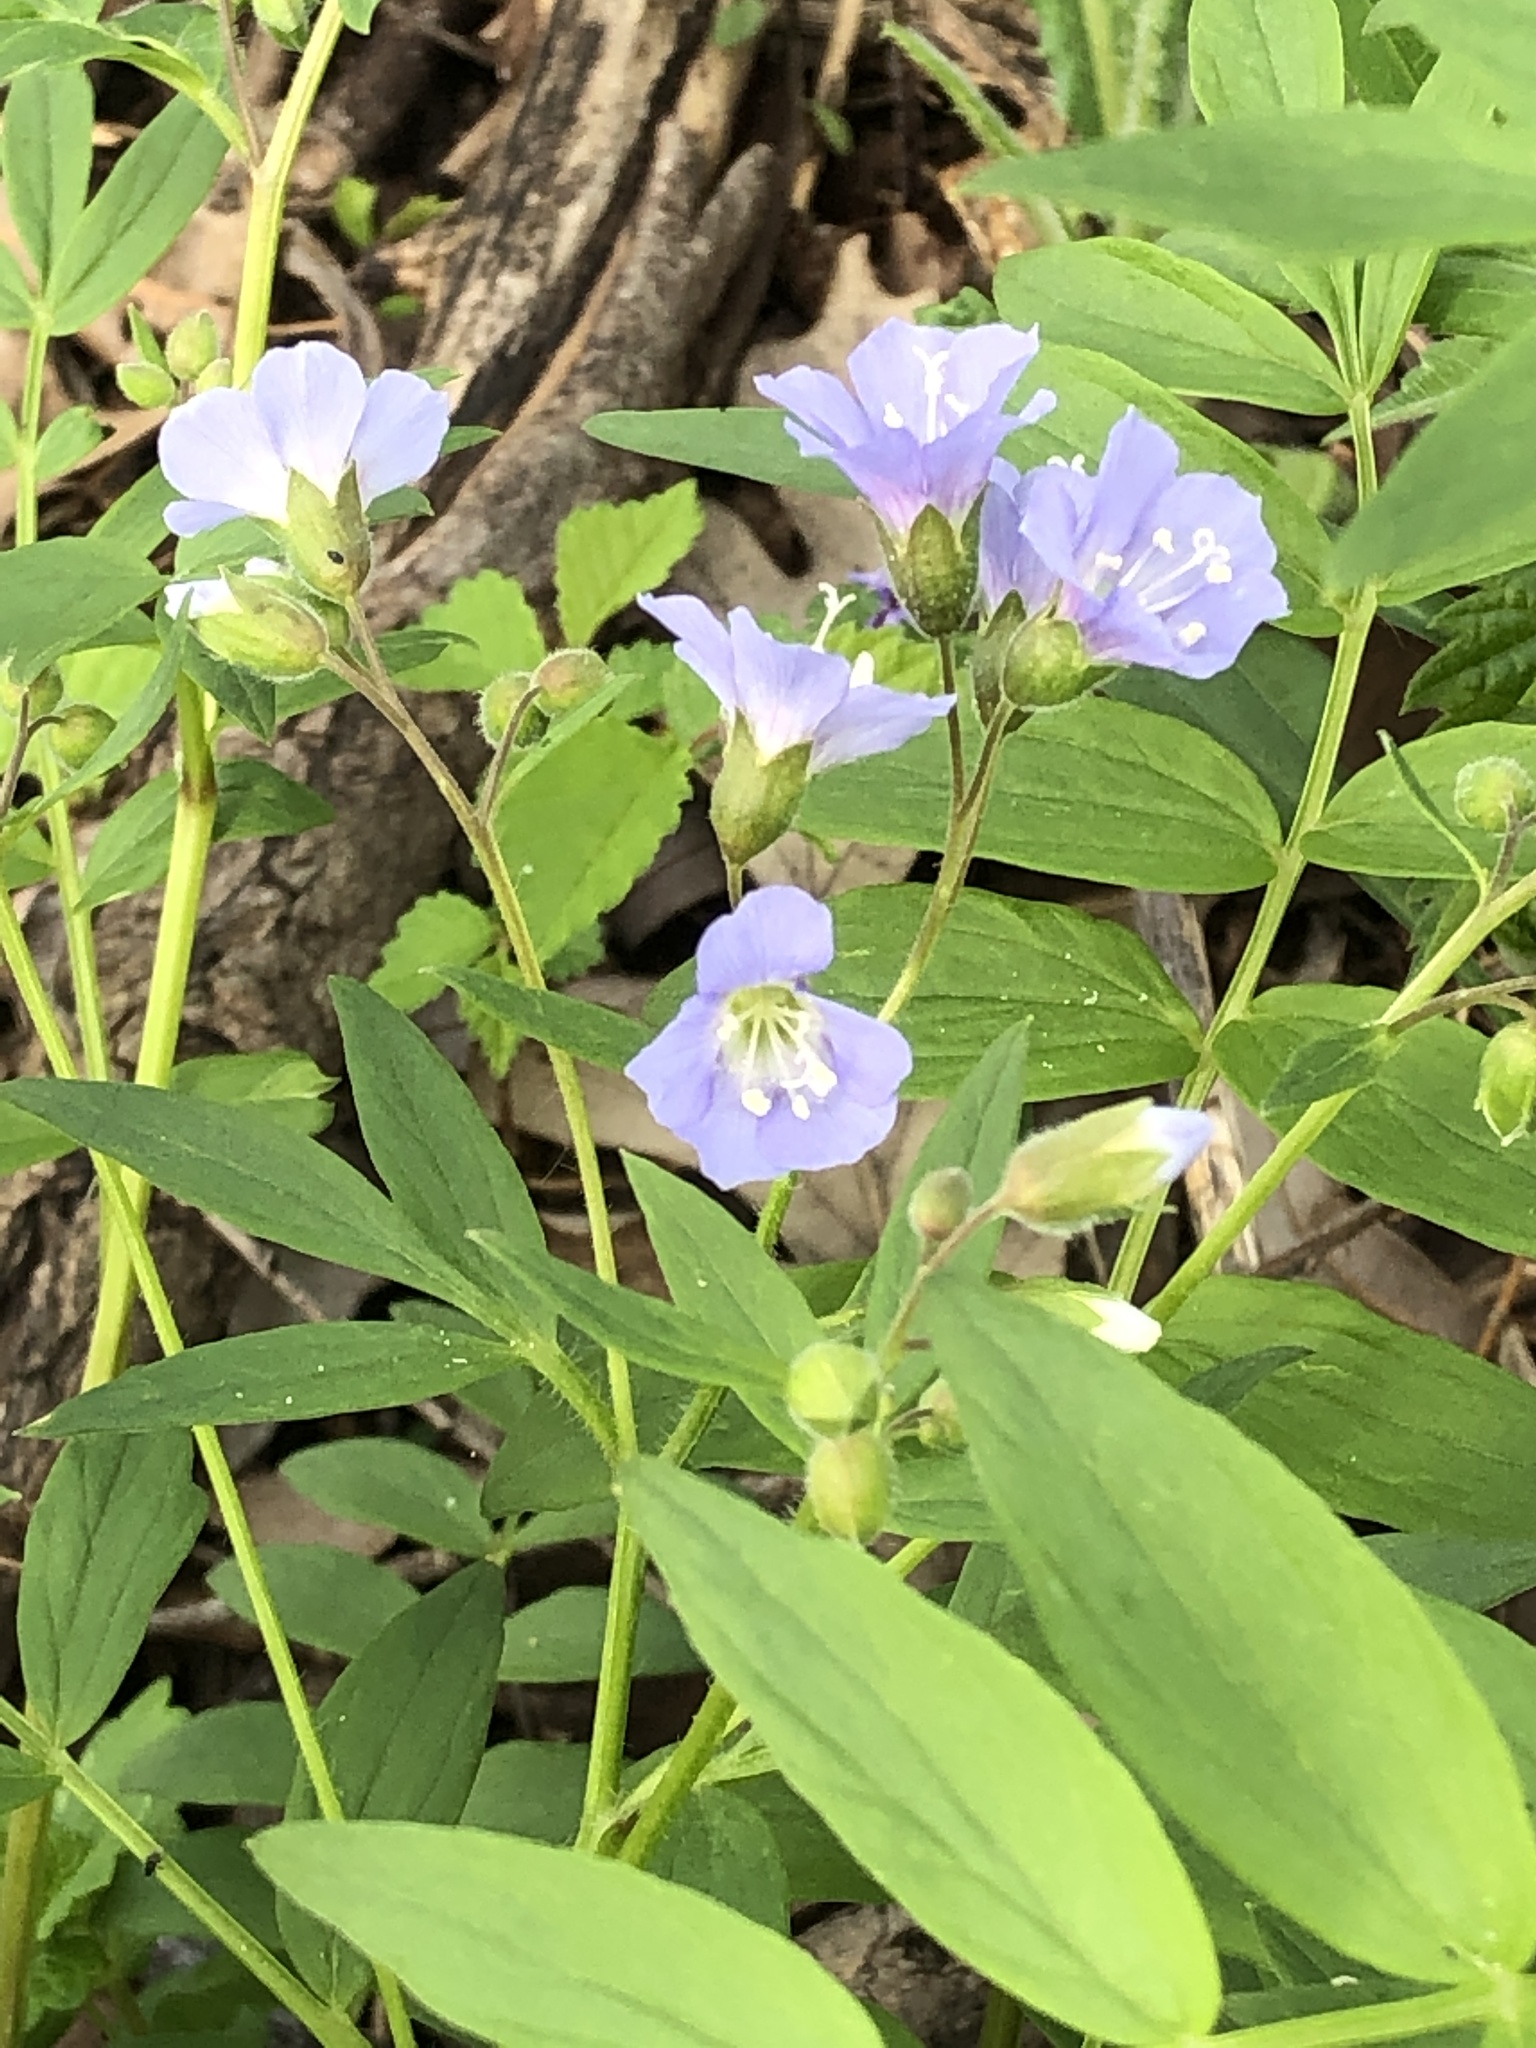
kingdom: Plantae
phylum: Tracheophyta
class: Magnoliopsida
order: Ericales
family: Polemoniaceae
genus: Polemonium
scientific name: Polemonium reptans
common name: Creeping jacob's-ladder
